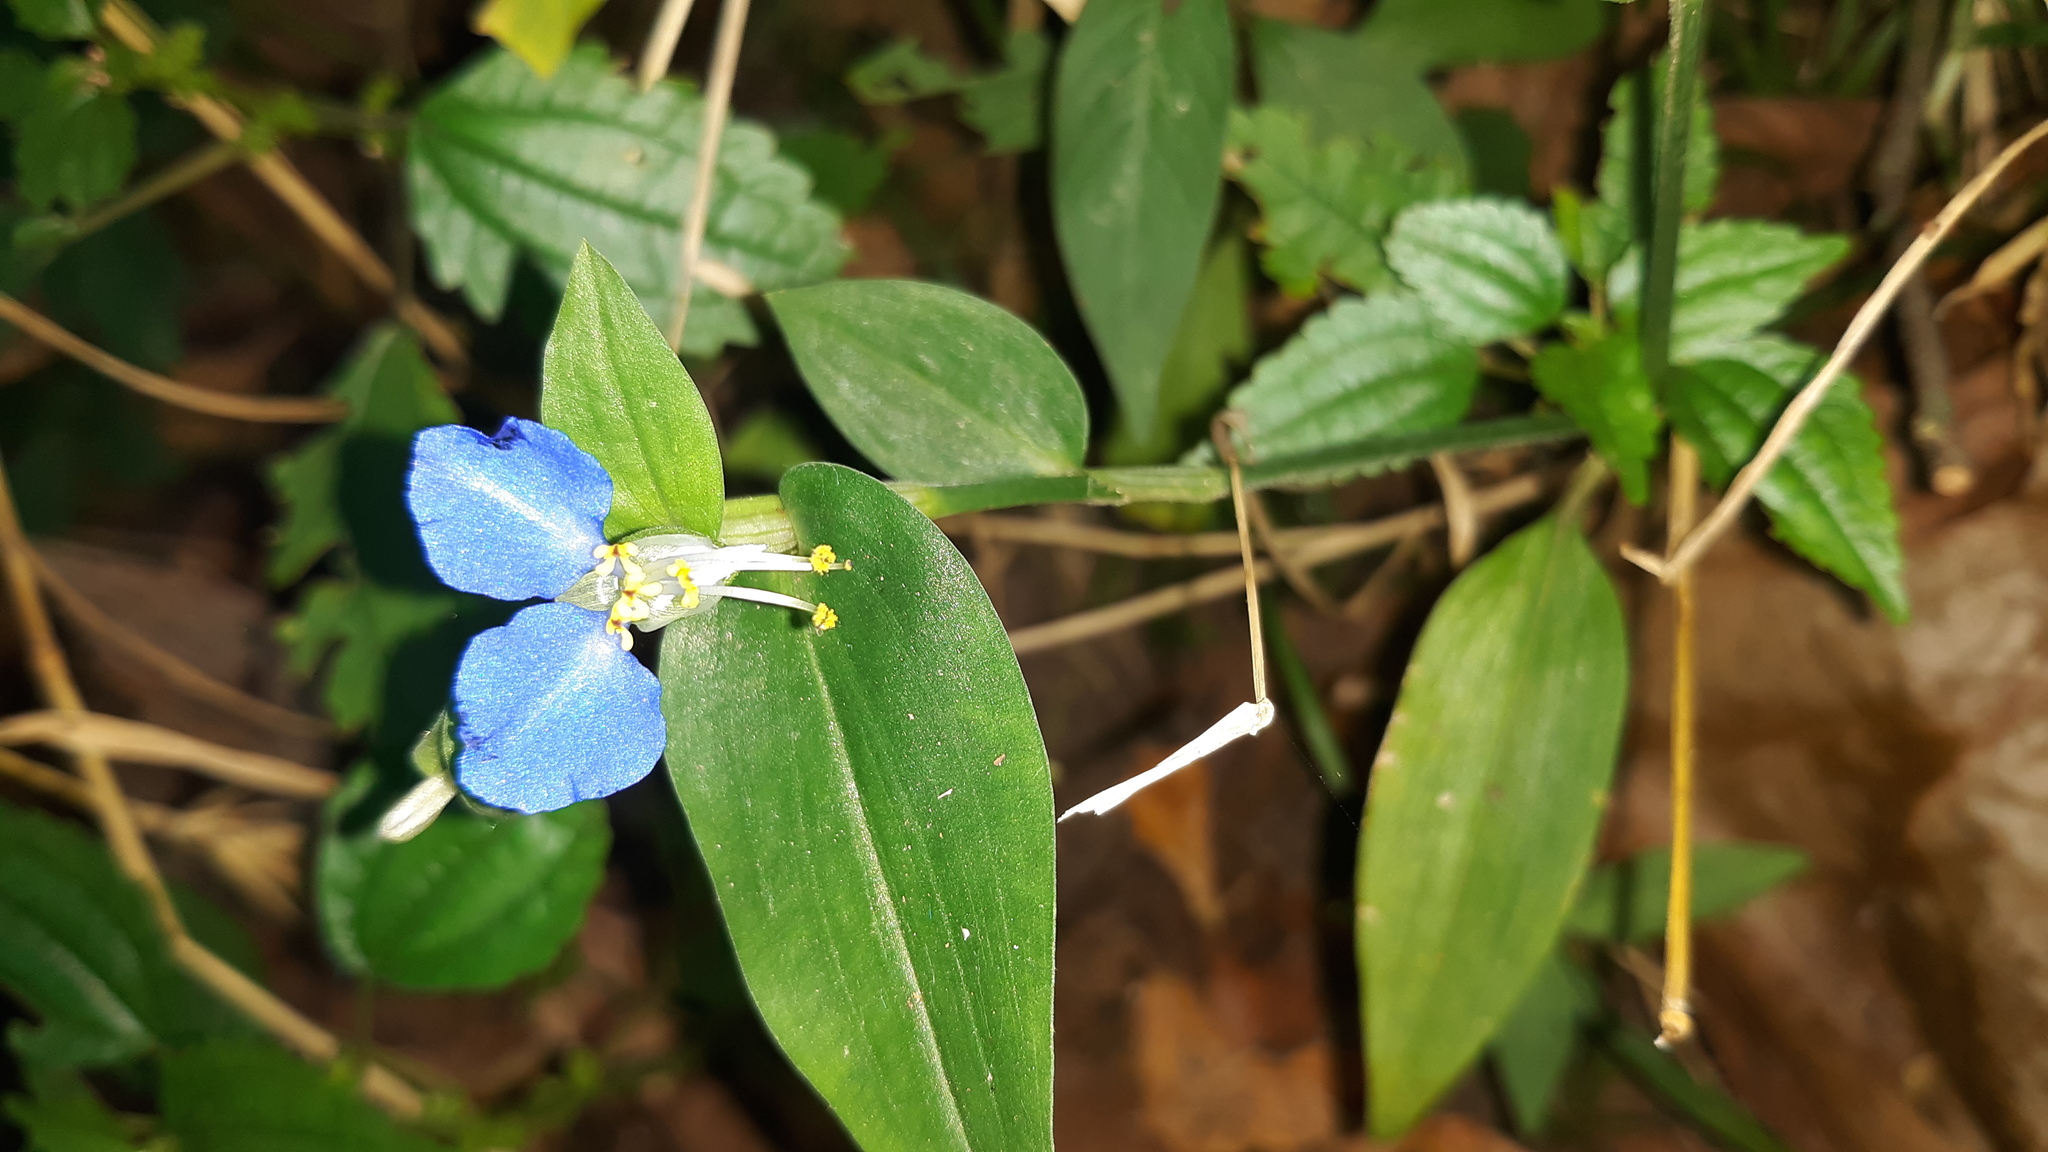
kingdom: Plantae
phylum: Tracheophyta
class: Liliopsida
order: Commelinales
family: Commelinaceae
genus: Commelina
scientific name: Commelina communis
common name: Asiatic dayflower
